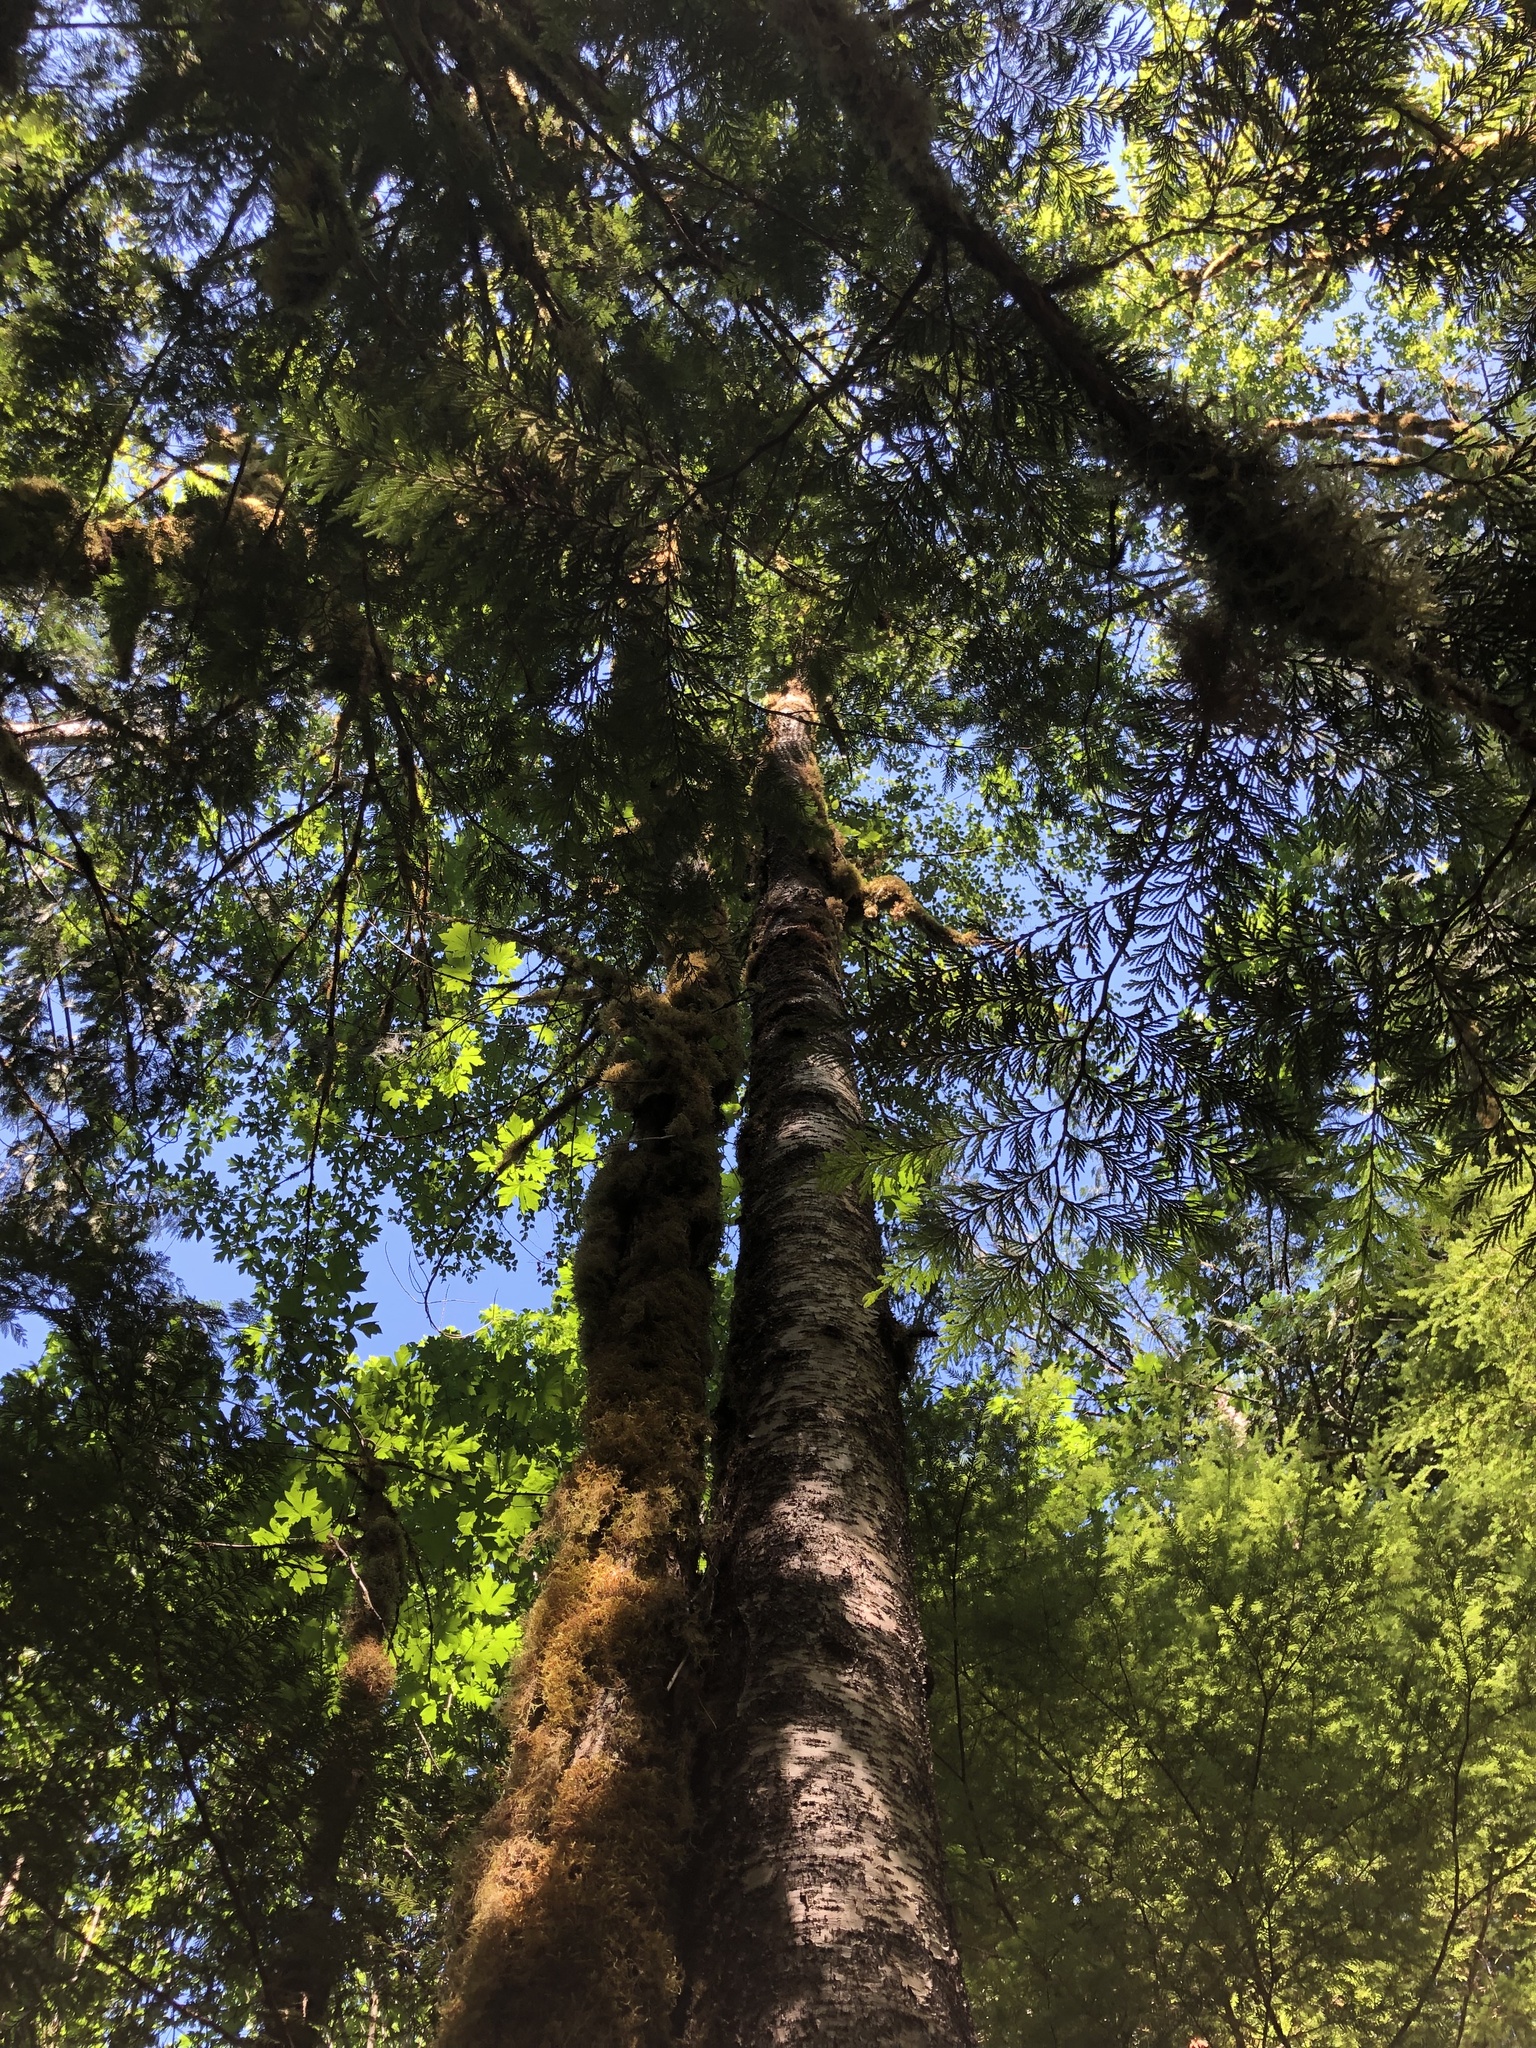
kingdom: Plantae
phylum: Tracheophyta
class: Magnoliopsida
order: Fagales
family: Betulaceae
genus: Betula
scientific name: Betula papyrifera
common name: Paper birch
